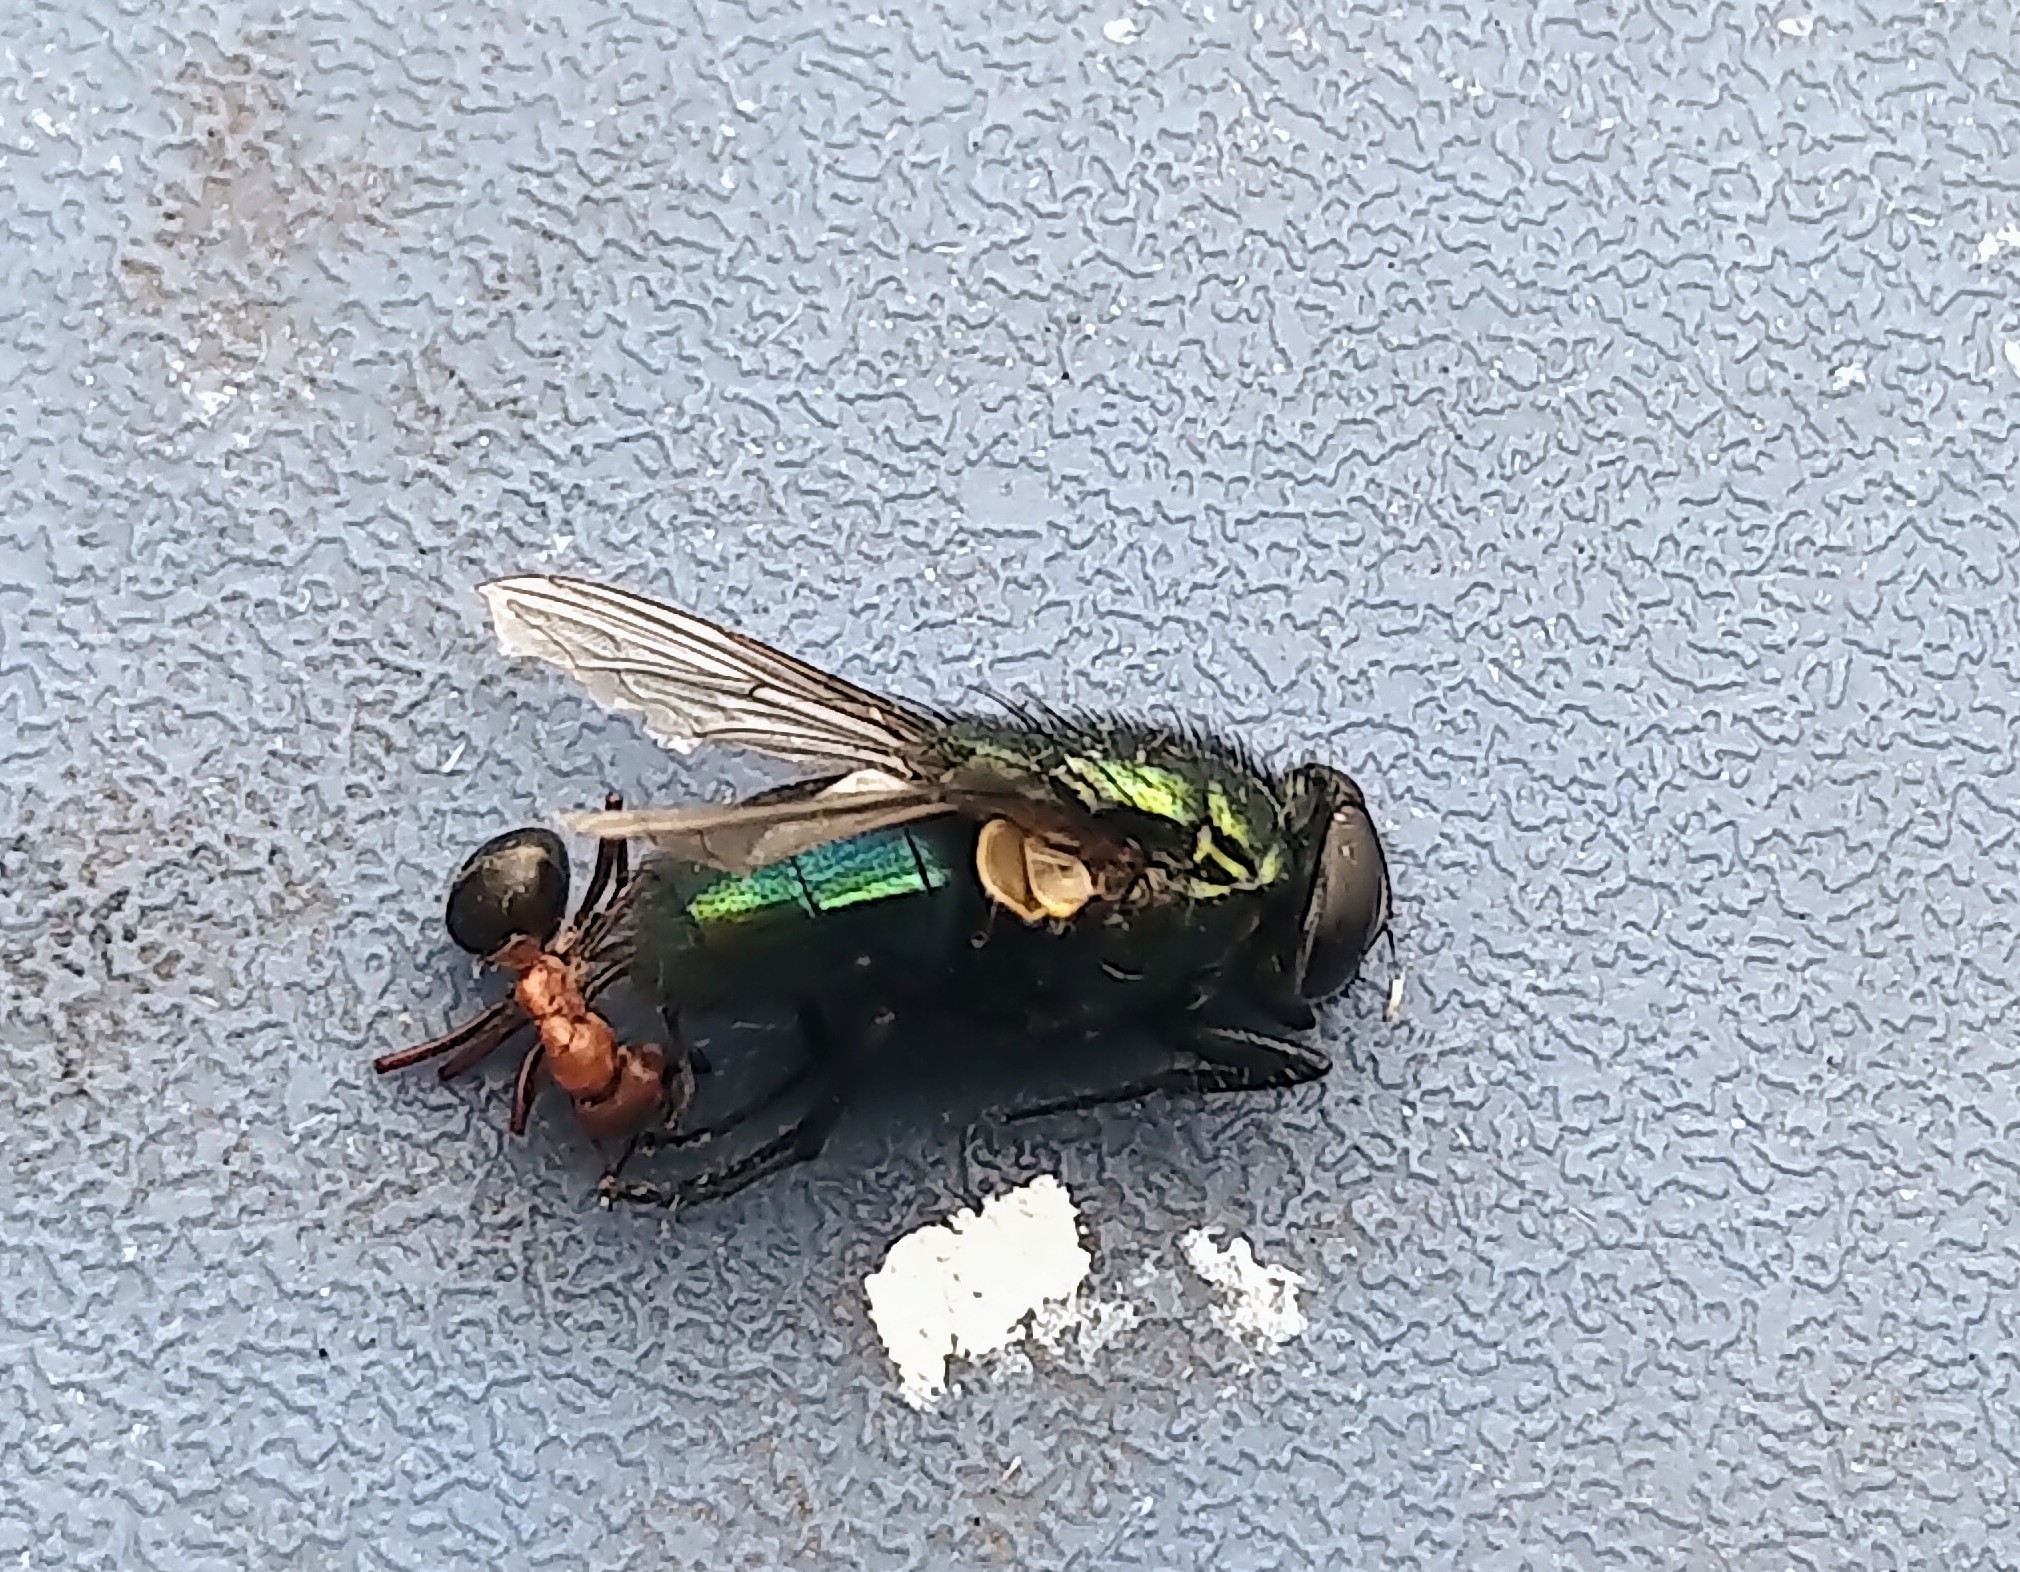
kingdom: Animalia
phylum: Arthropoda
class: Insecta
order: Diptera
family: Calliphoridae
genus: Phormia
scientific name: Phormia regina
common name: Black blow fly
